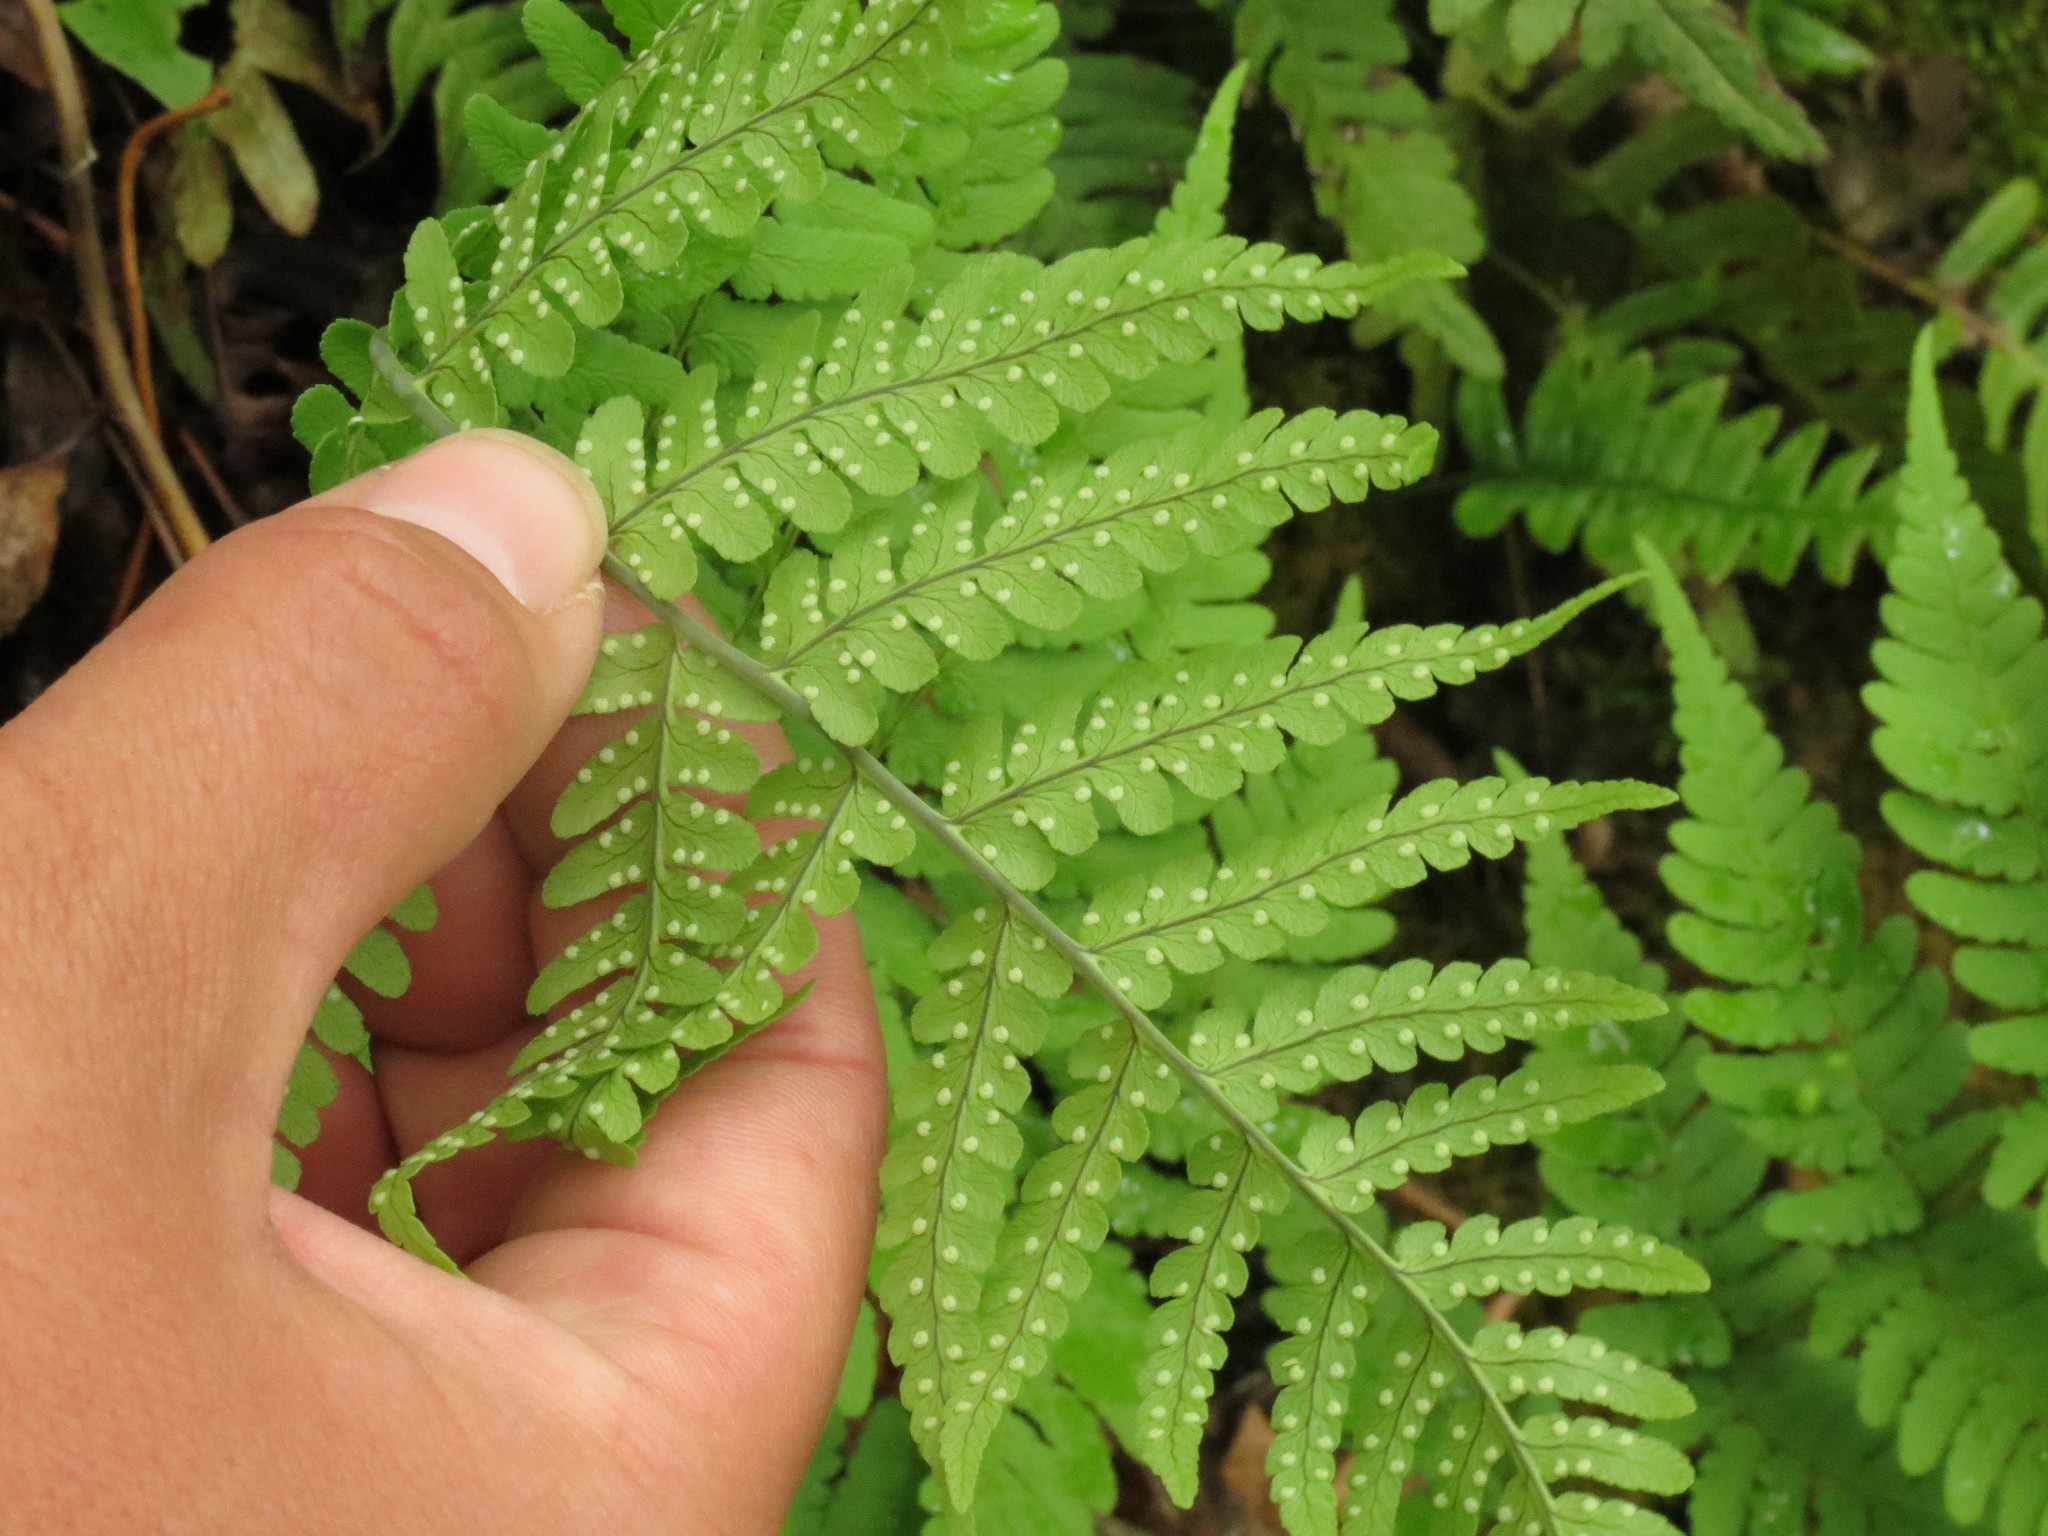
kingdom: Plantae
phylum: Tracheophyta
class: Polypodiopsida
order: Polypodiales
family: Dryopteridaceae
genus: Dryopteris
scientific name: Dryopteris marginalis
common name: Marginal wood fern
